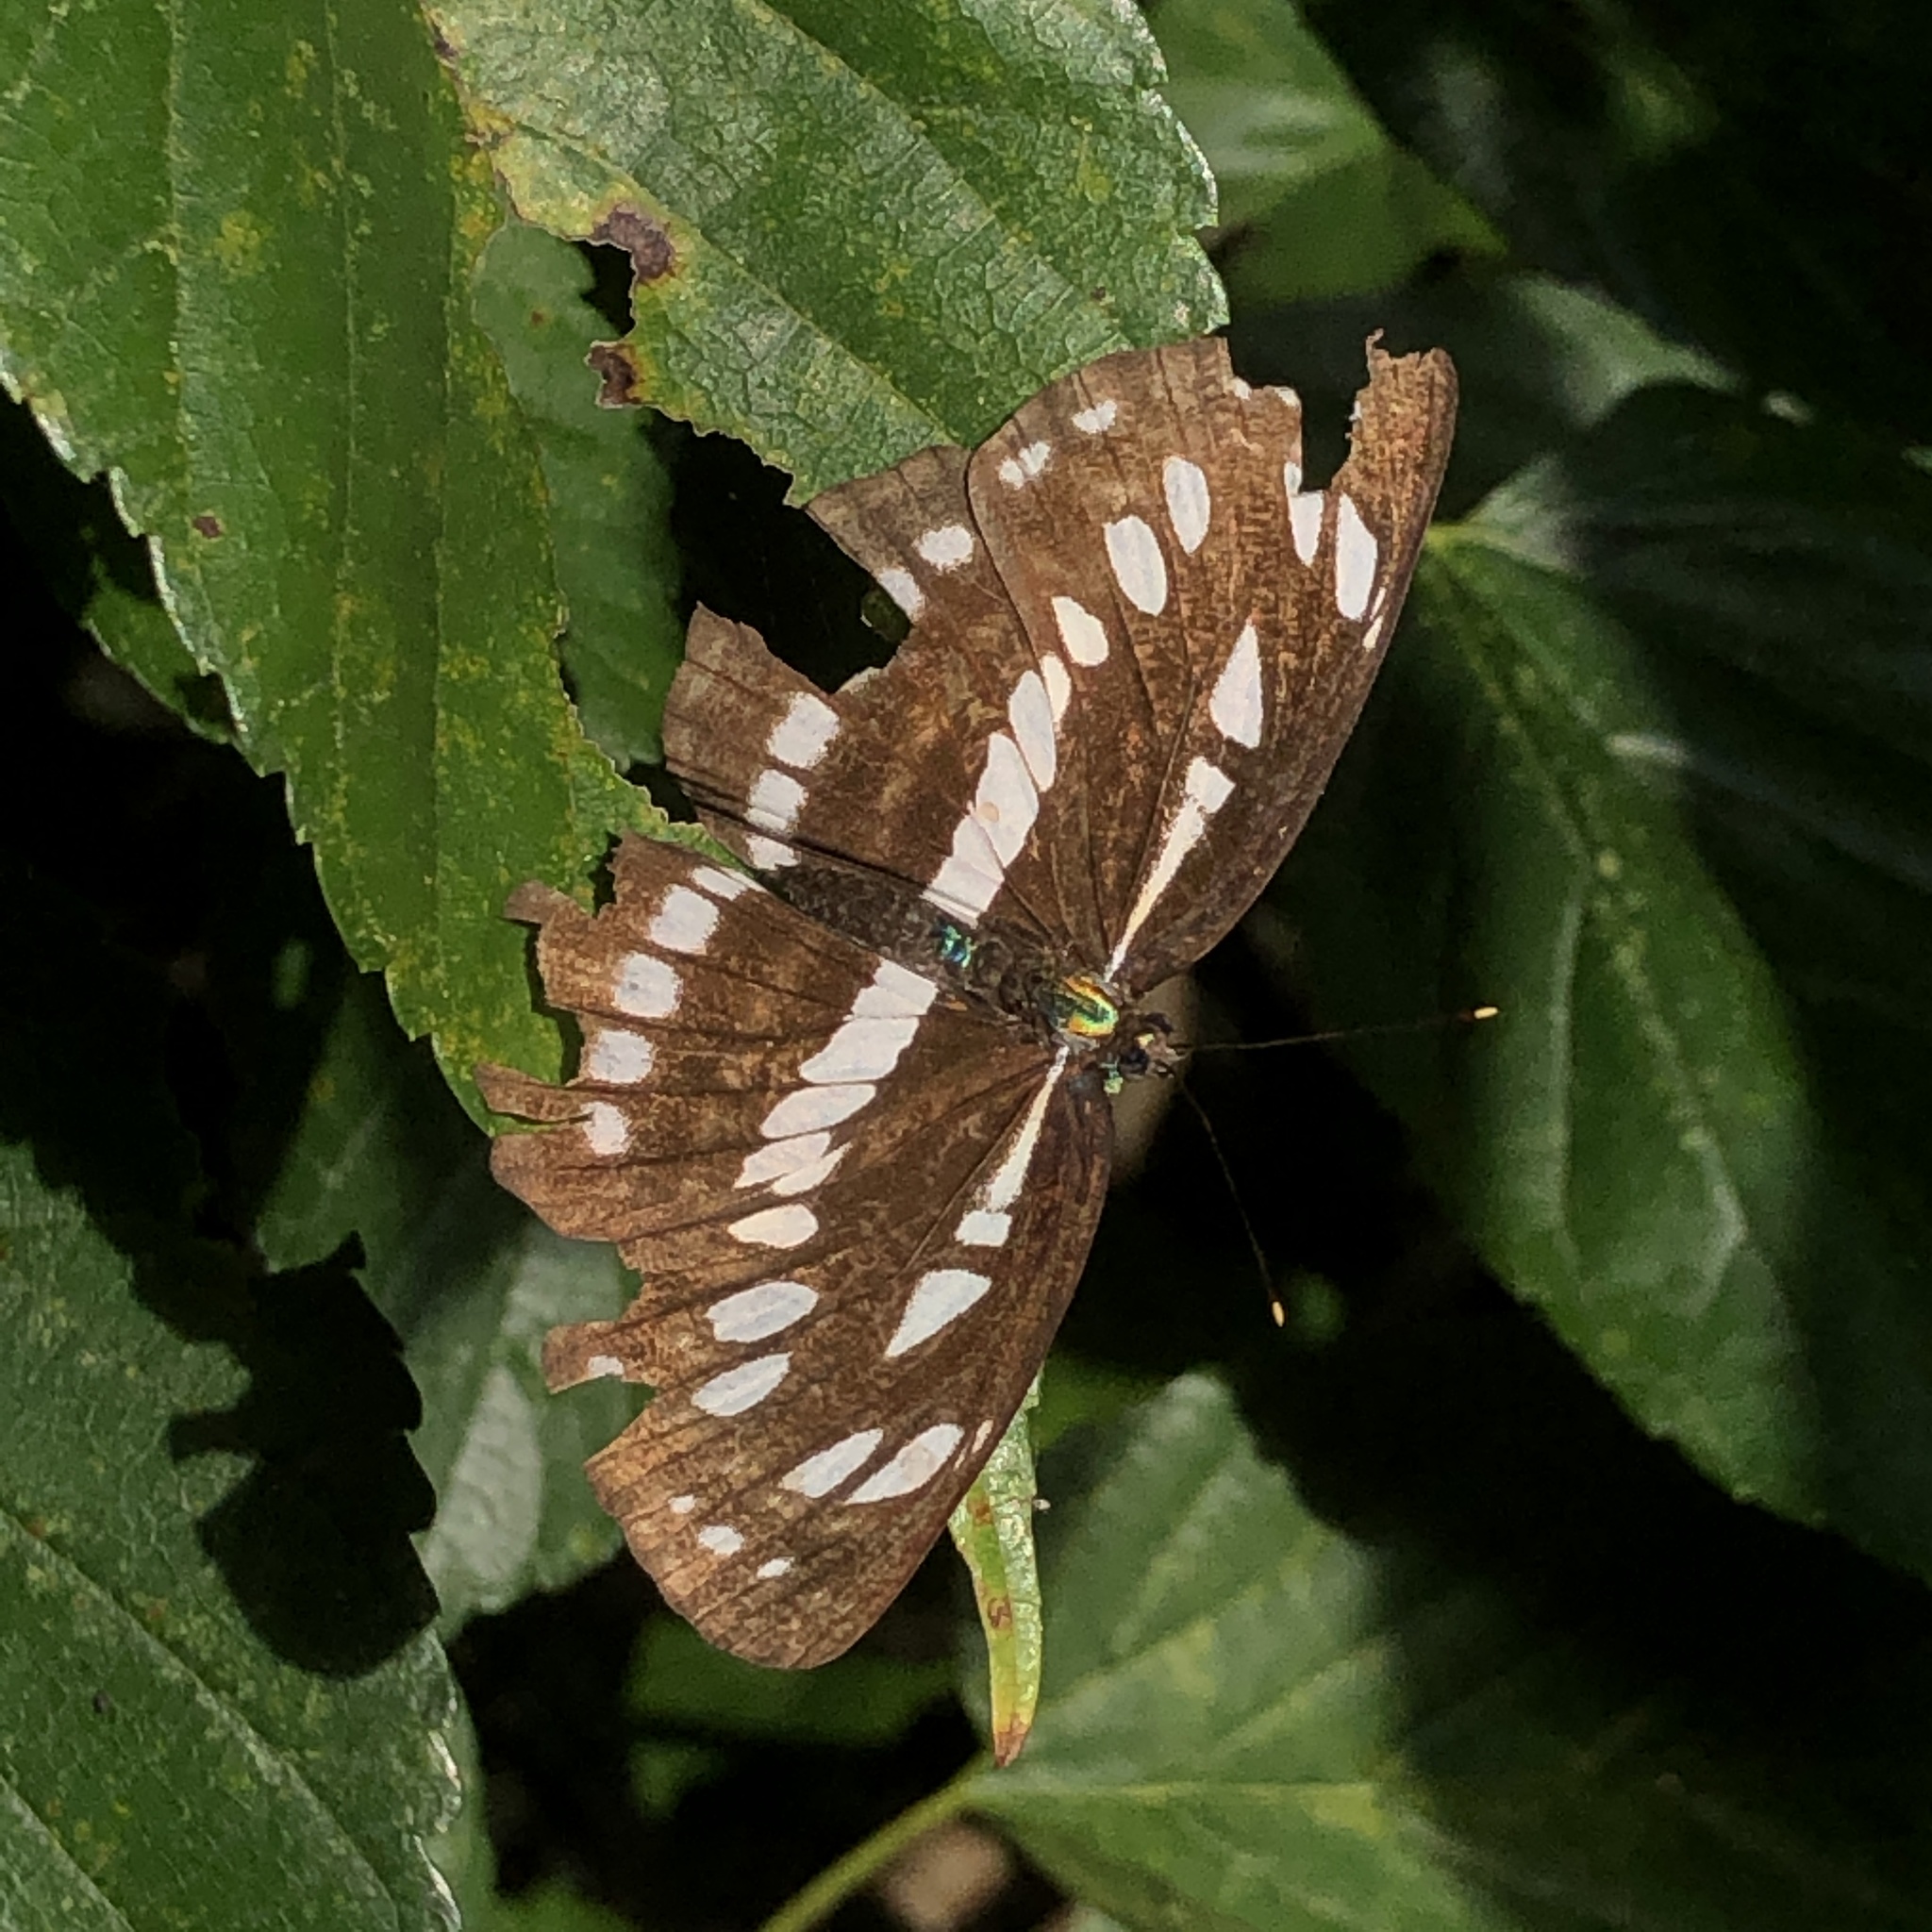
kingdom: Animalia
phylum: Arthropoda
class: Insecta
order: Lepidoptera
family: Nymphalidae
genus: Neptis
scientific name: Neptis hylas
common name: Common sailer
